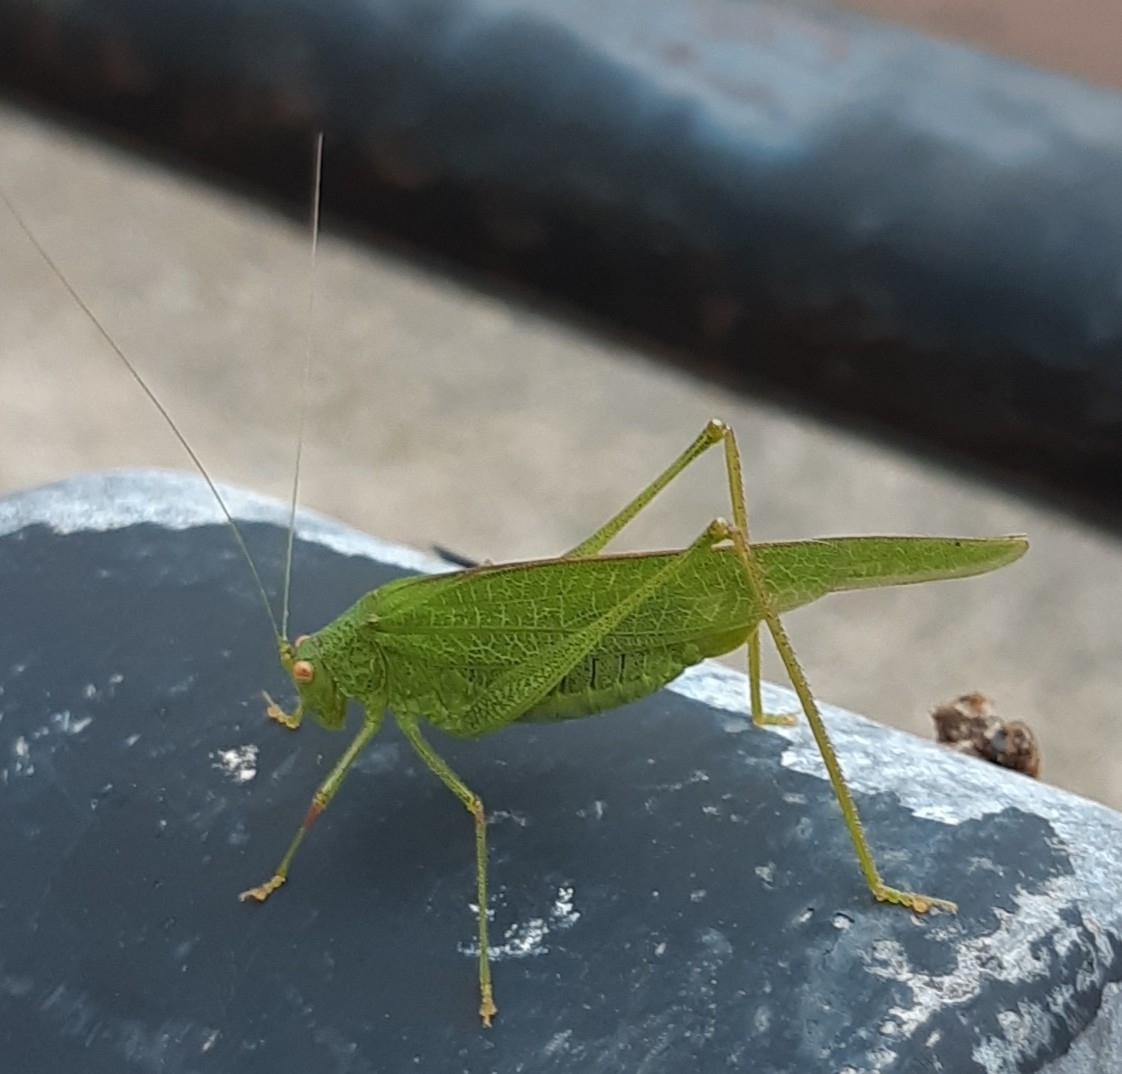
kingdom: Animalia
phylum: Arthropoda
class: Insecta
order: Orthoptera
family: Tettigoniidae
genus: Phaneroptera
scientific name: Phaneroptera nana
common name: Southern sickle bush-cricket
